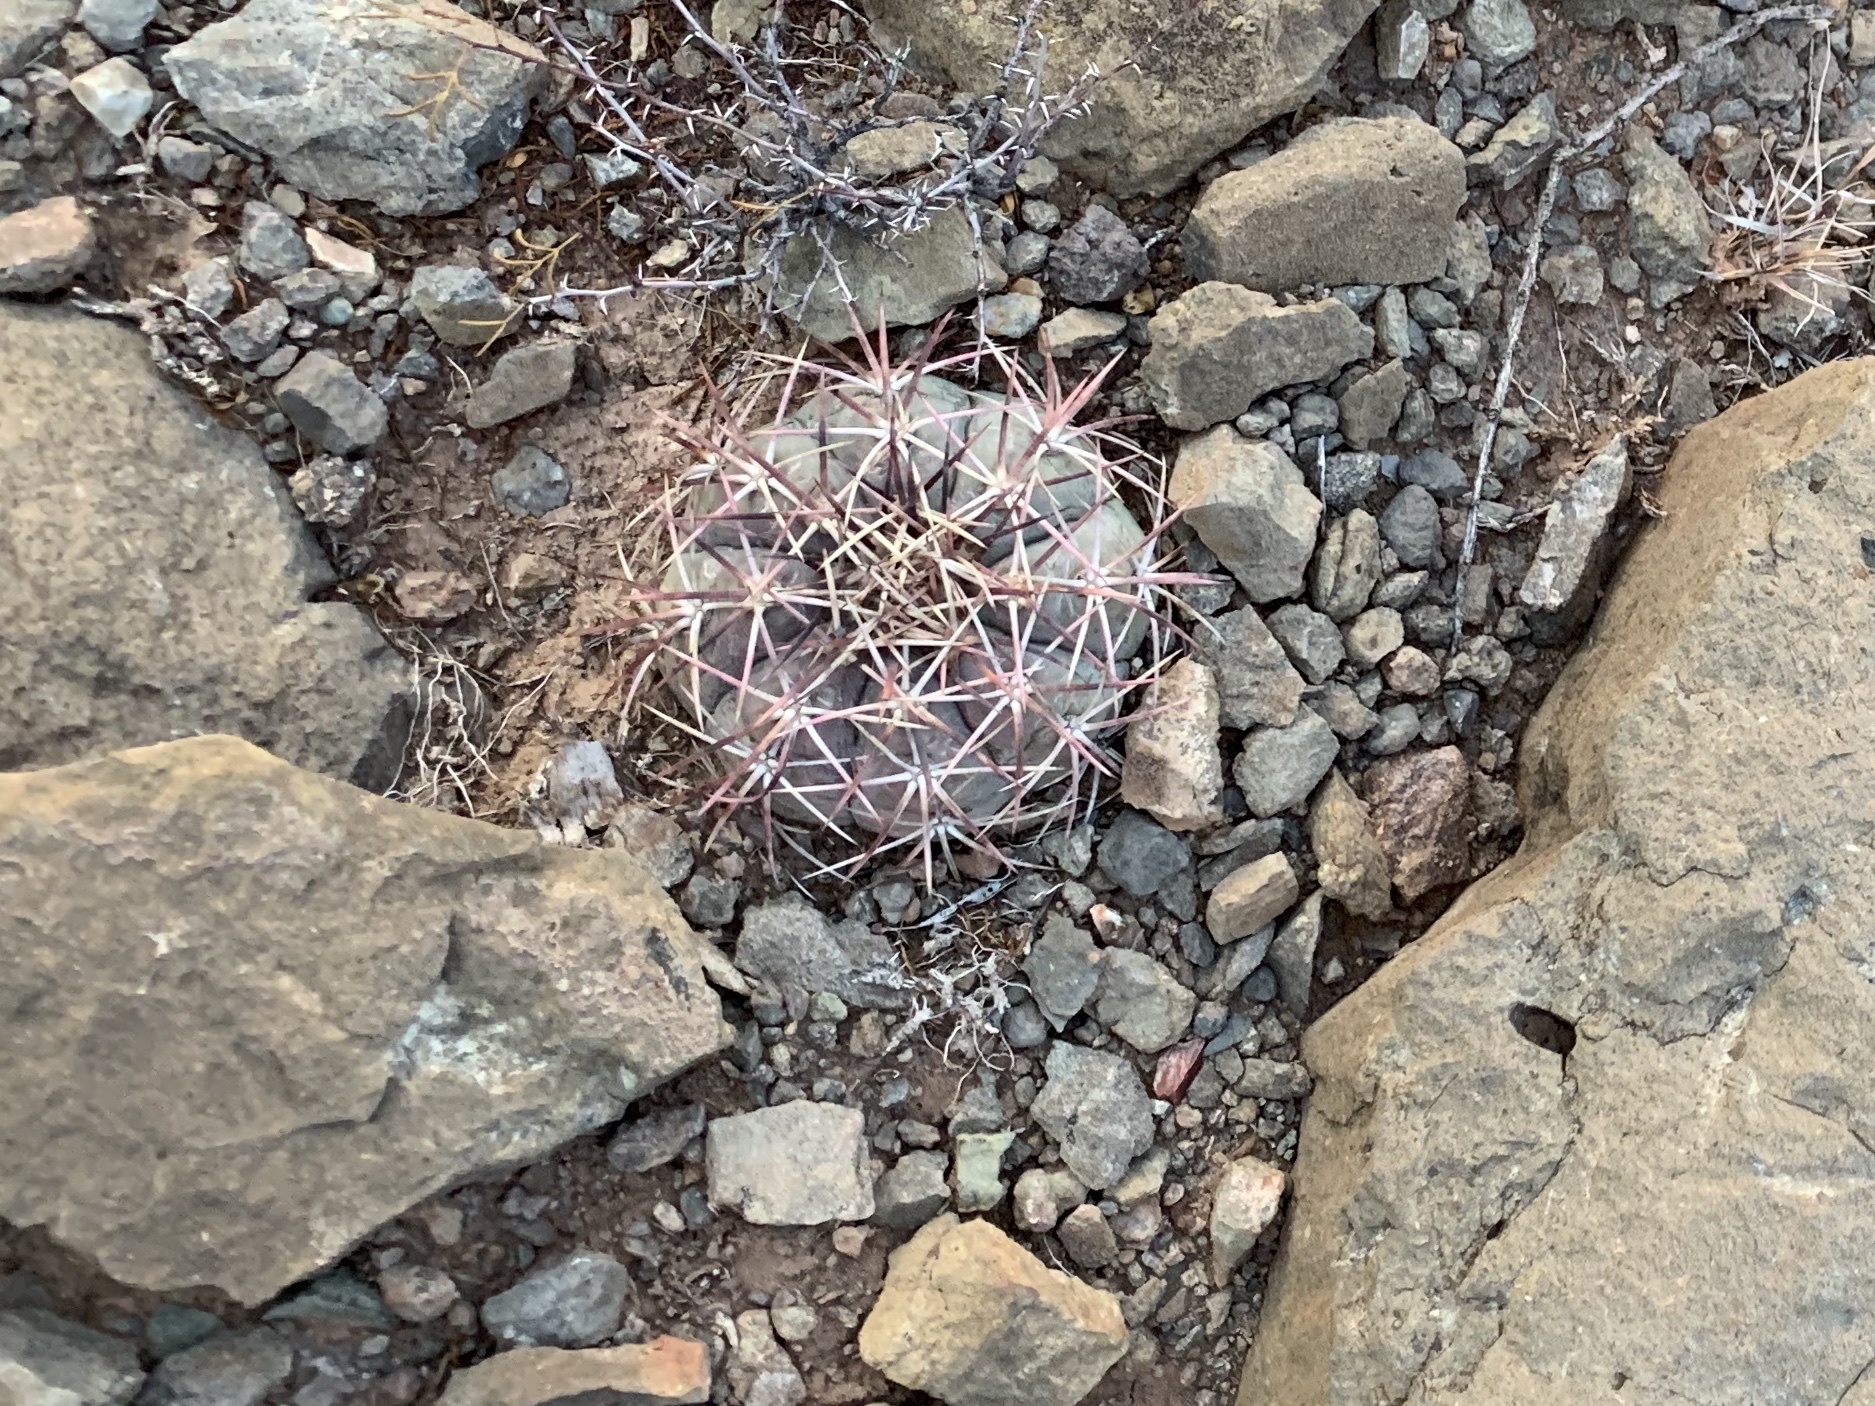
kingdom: Plantae
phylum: Tracheophyta
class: Magnoliopsida
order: Caryophyllales
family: Cactaceae
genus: Echinocactus
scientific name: Echinocactus horizonthalonius
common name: Devilshead
